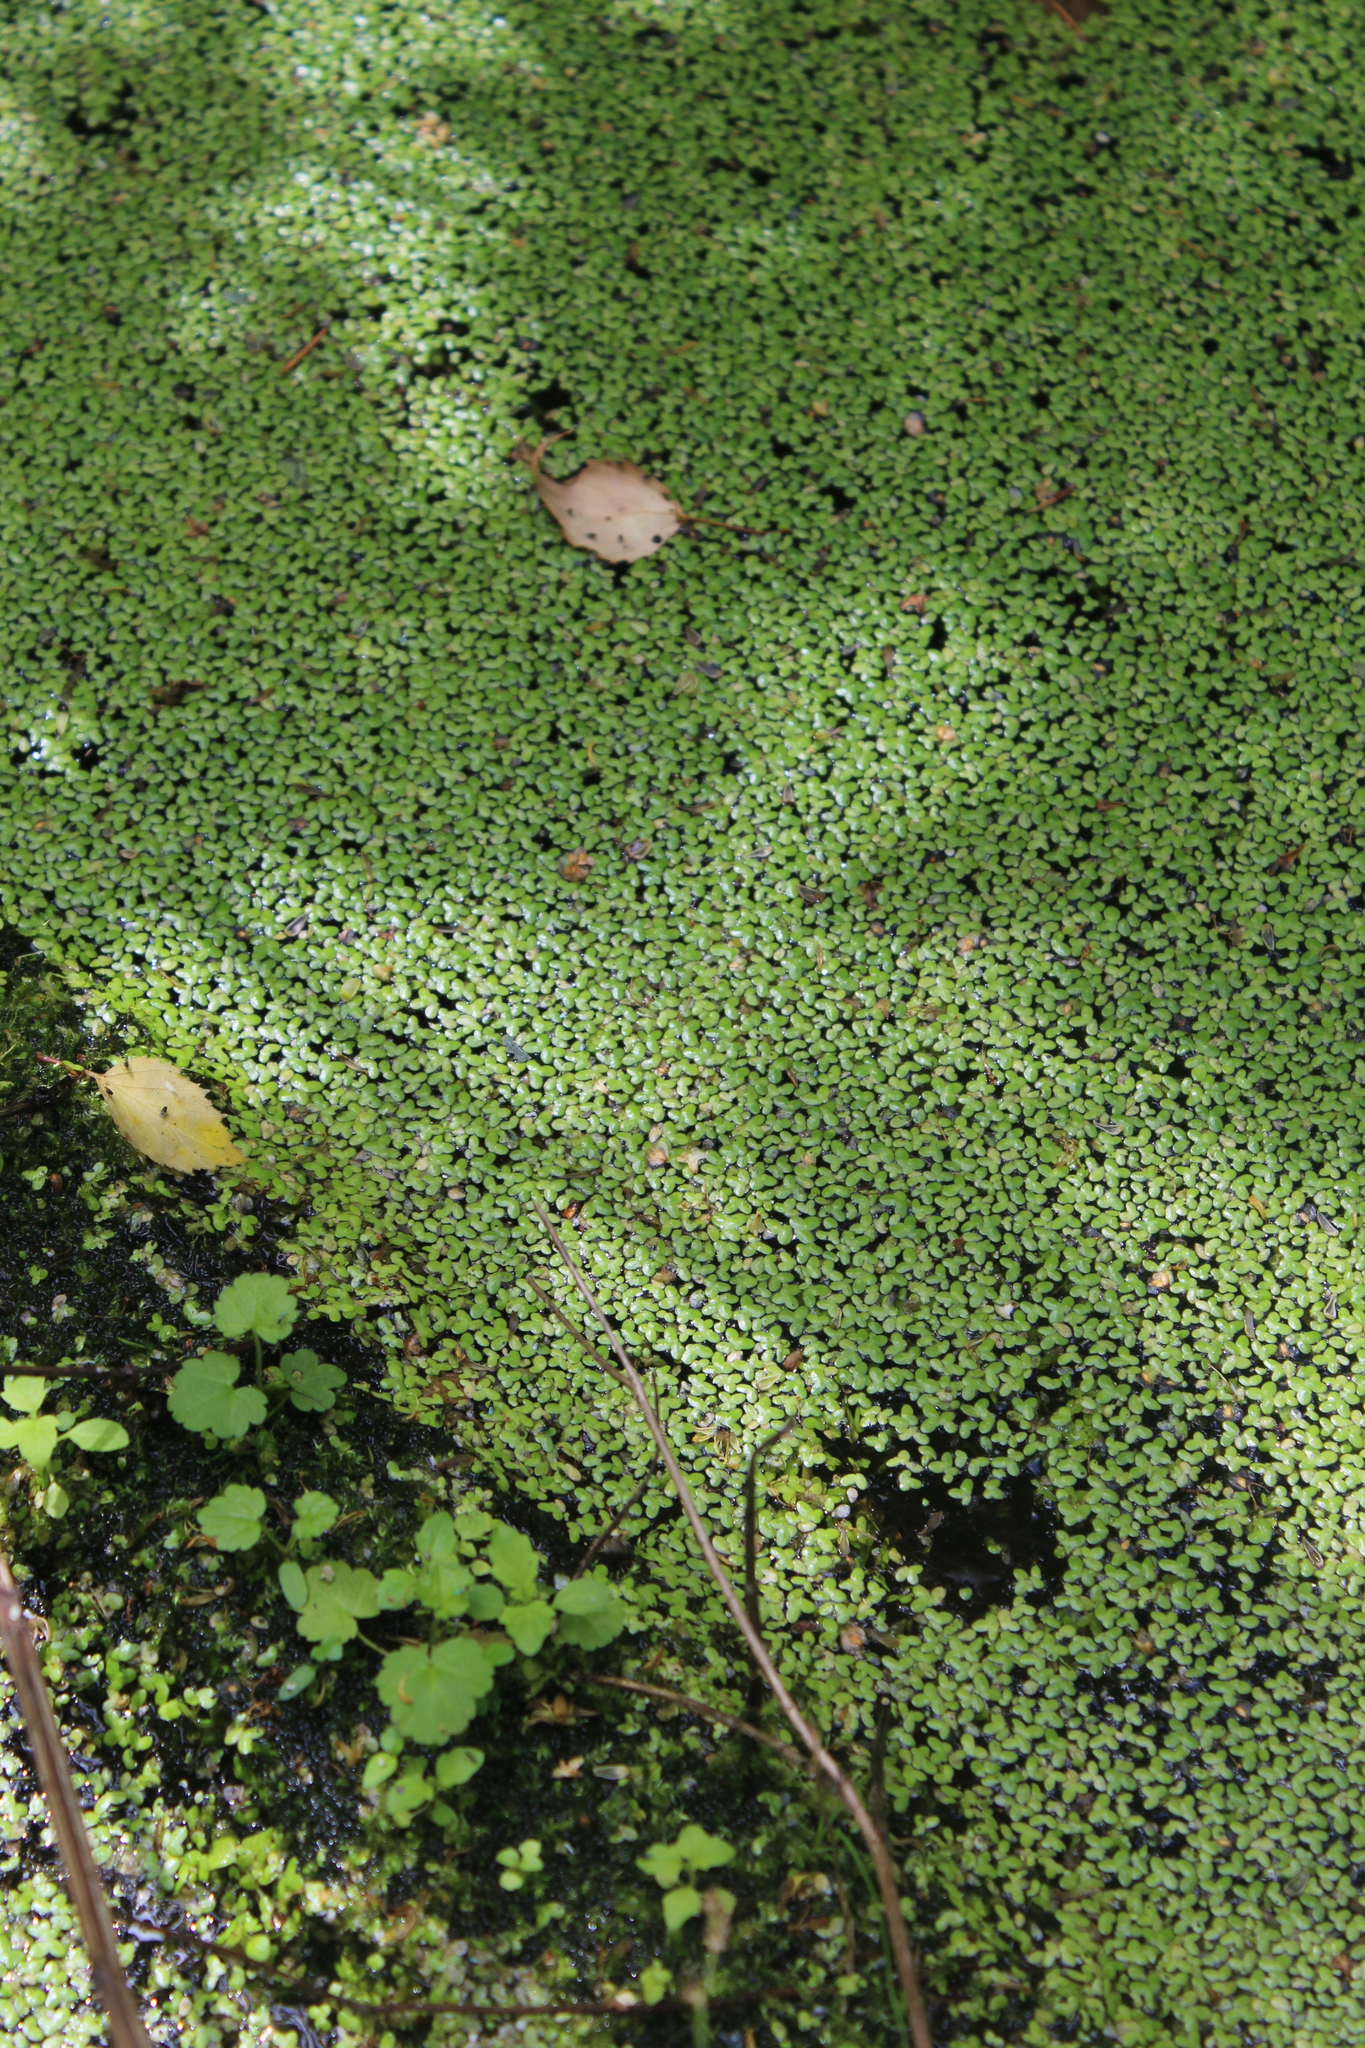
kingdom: Plantae
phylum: Tracheophyta
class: Liliopsida
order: Alismatales
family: Araceae
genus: Lemna
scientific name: Lemna minor
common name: Common duckweed
